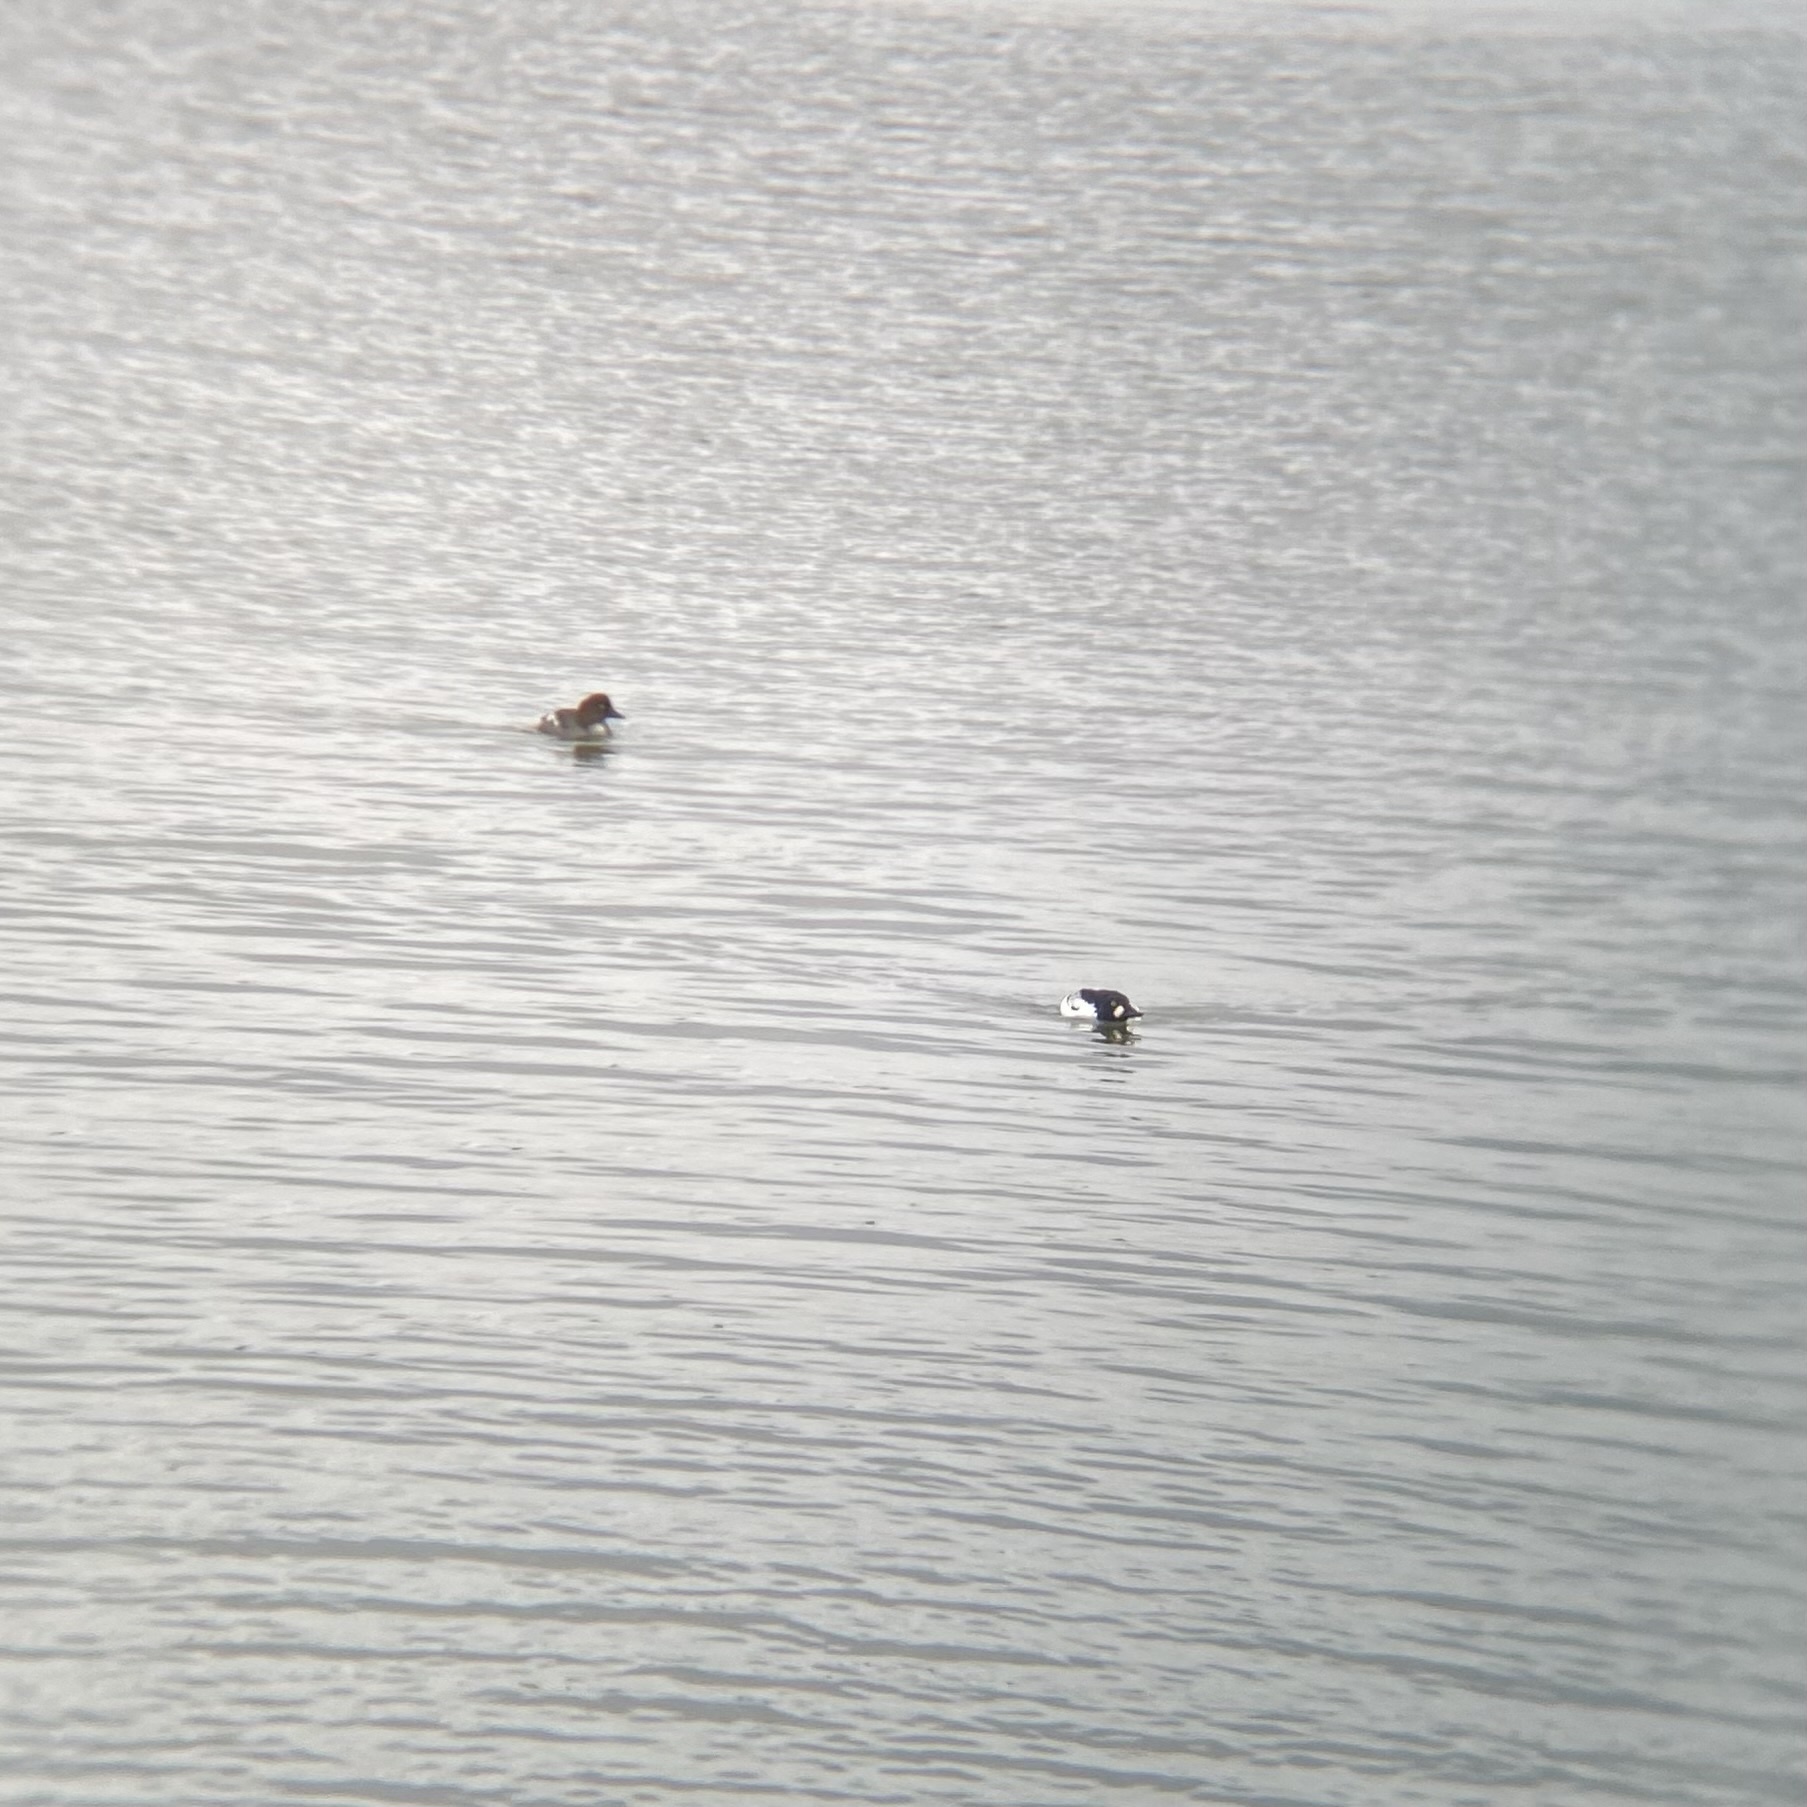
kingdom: Animalia
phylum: Chordata
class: Aves
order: Anseriformes
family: Anatidae
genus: Bucephala
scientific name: Bucephala clangula
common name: Common goldeneye
